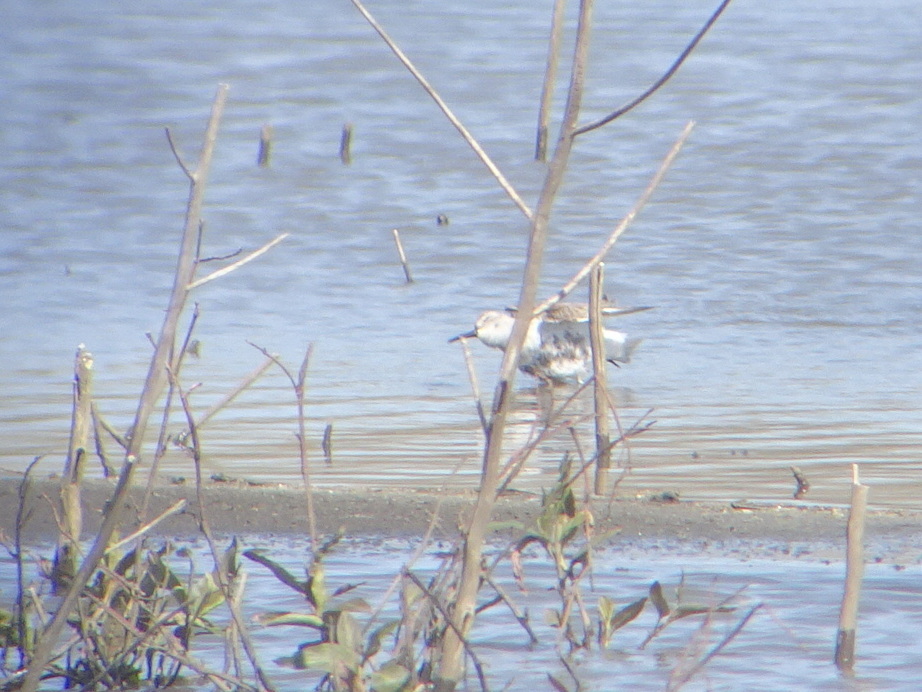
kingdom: Animalia
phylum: Chordata
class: Aves
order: Charadriiformes
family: Scolopacidae
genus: Calidris
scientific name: Calidris alpina
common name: Dunlin
